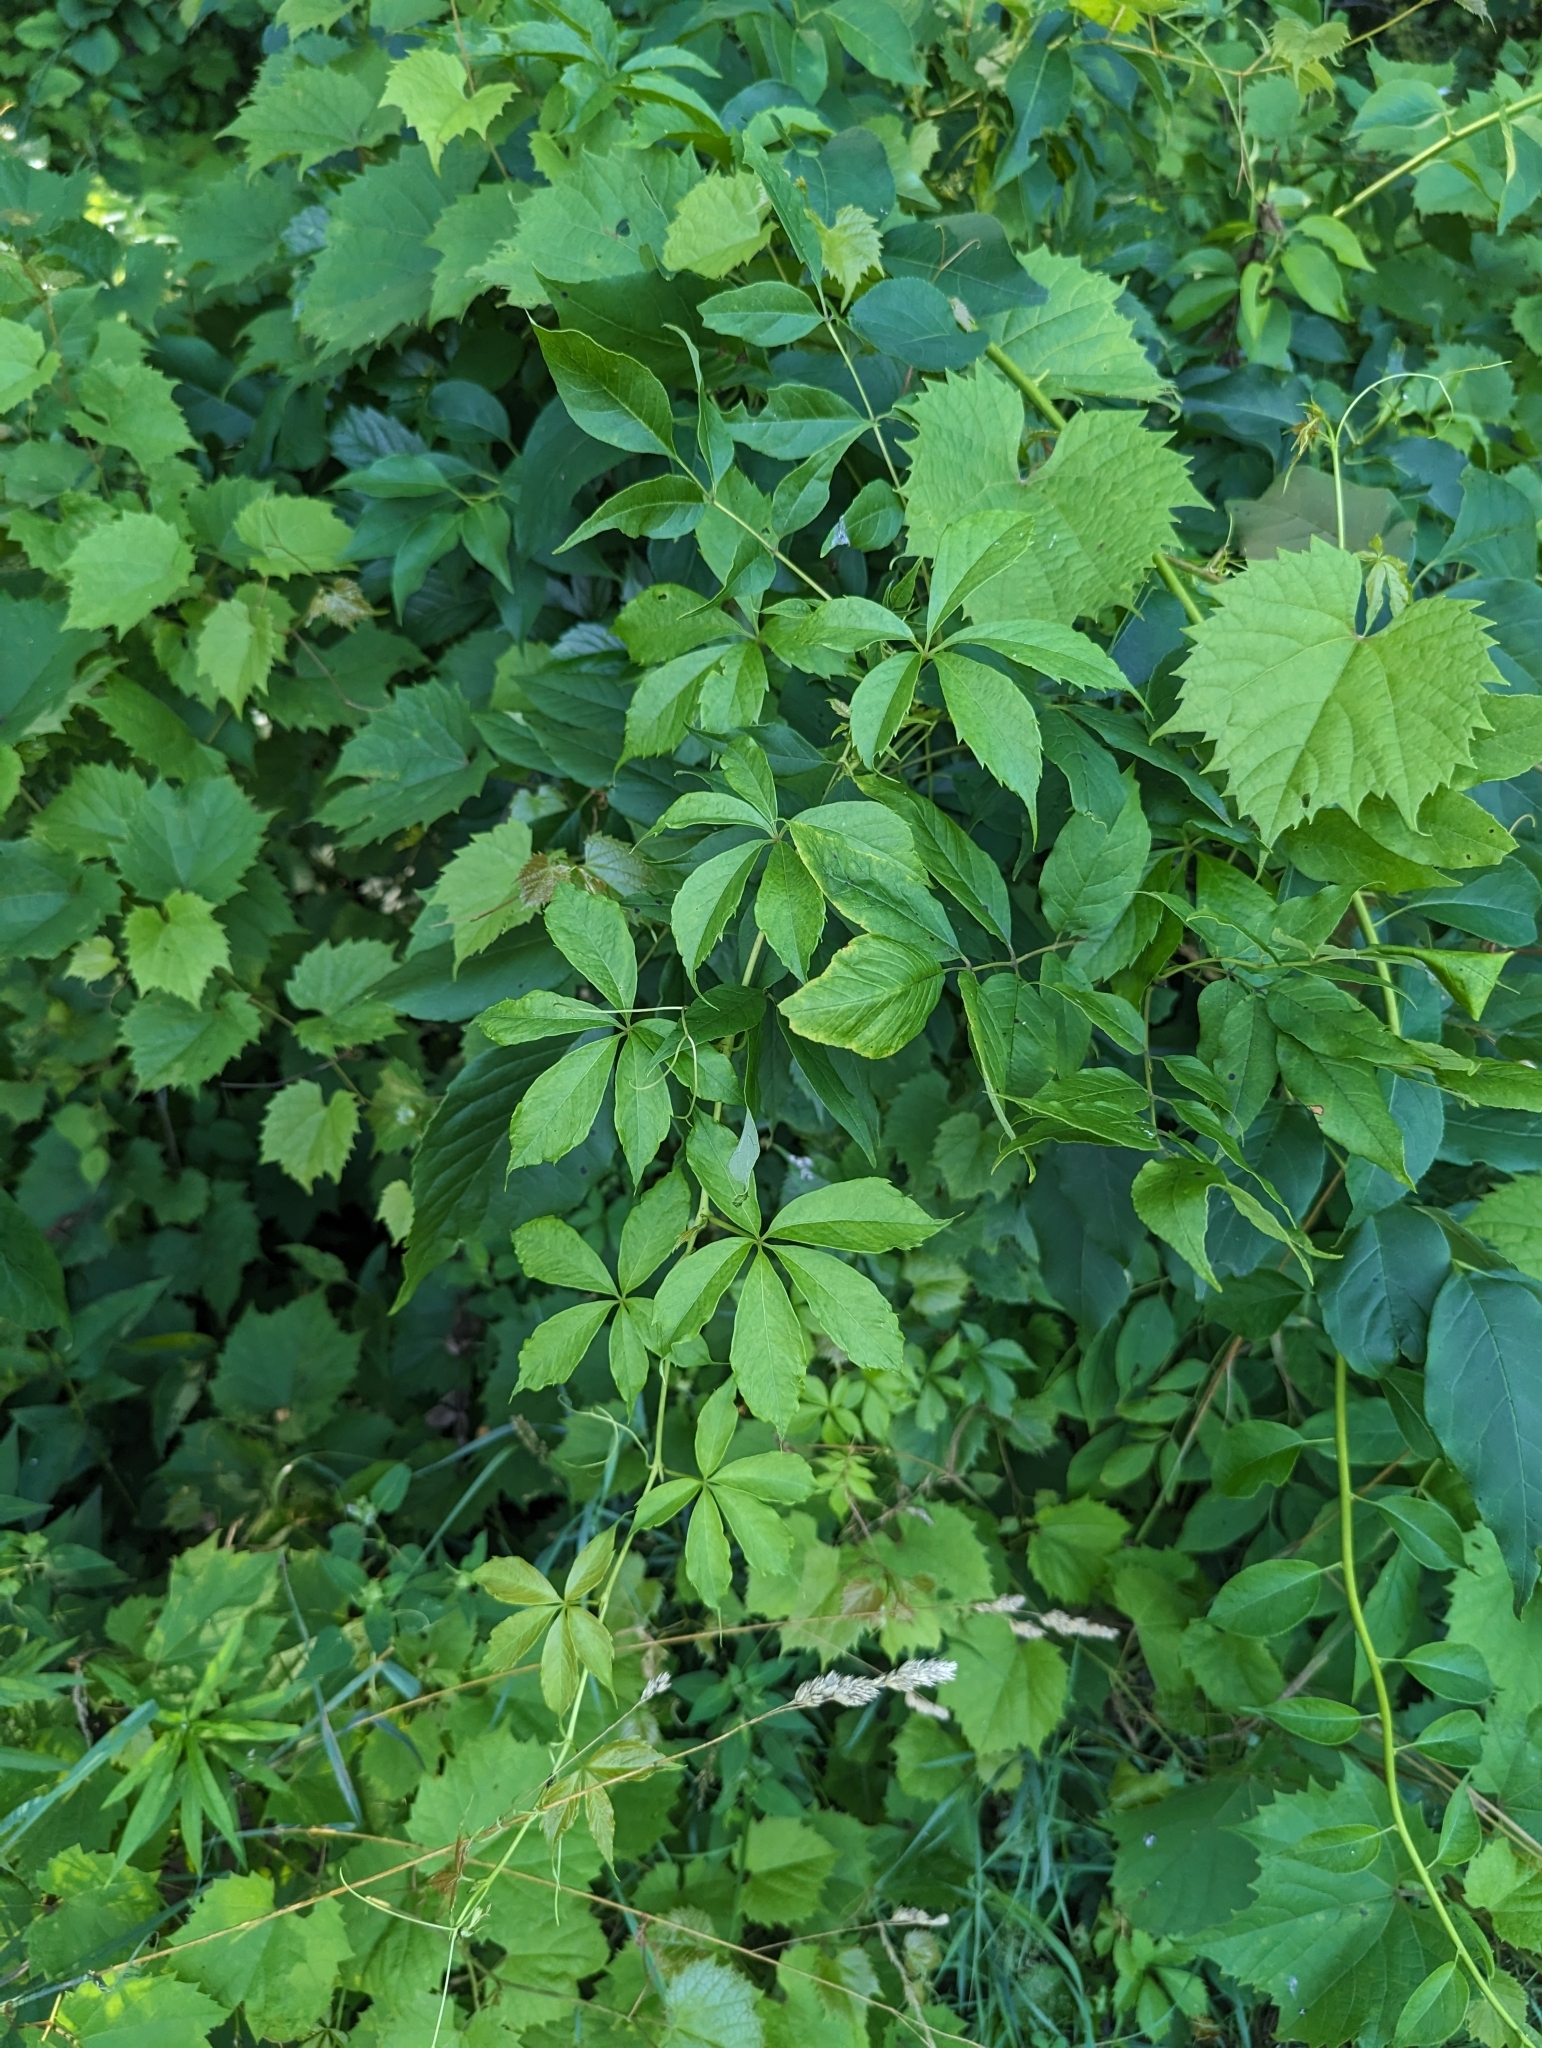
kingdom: Plantae
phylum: Tracheophyta
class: Magnoliopsida
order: Vitales
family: Vitaceae
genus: Parthenocissus
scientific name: Parthenocissus quinquefolia
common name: Virginia-creeper
